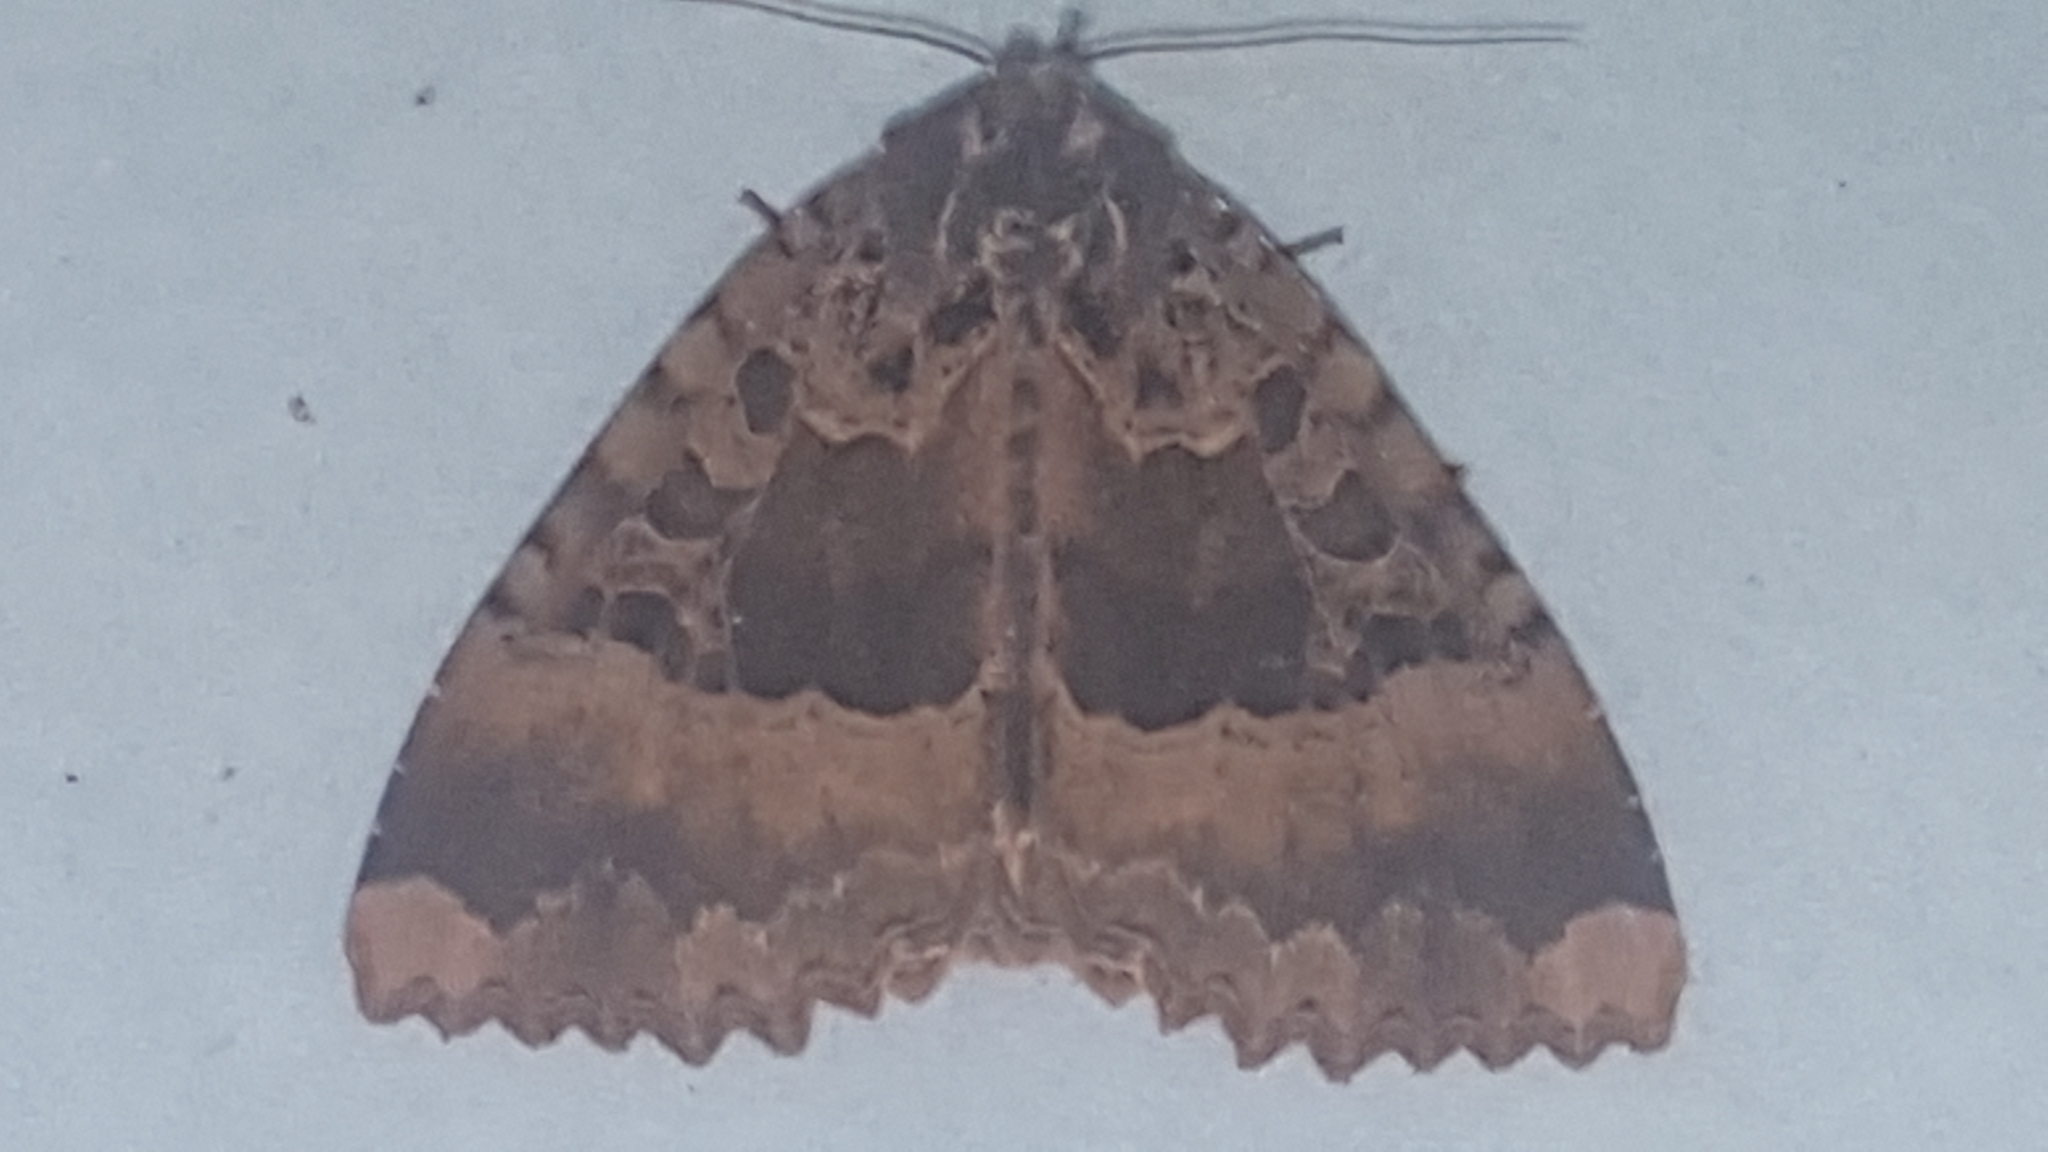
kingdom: Animalia
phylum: Arthropoda
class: Insecta
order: Lepidoptera
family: Noctuidae
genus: Mormo
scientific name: Mormo maura
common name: Old lady
